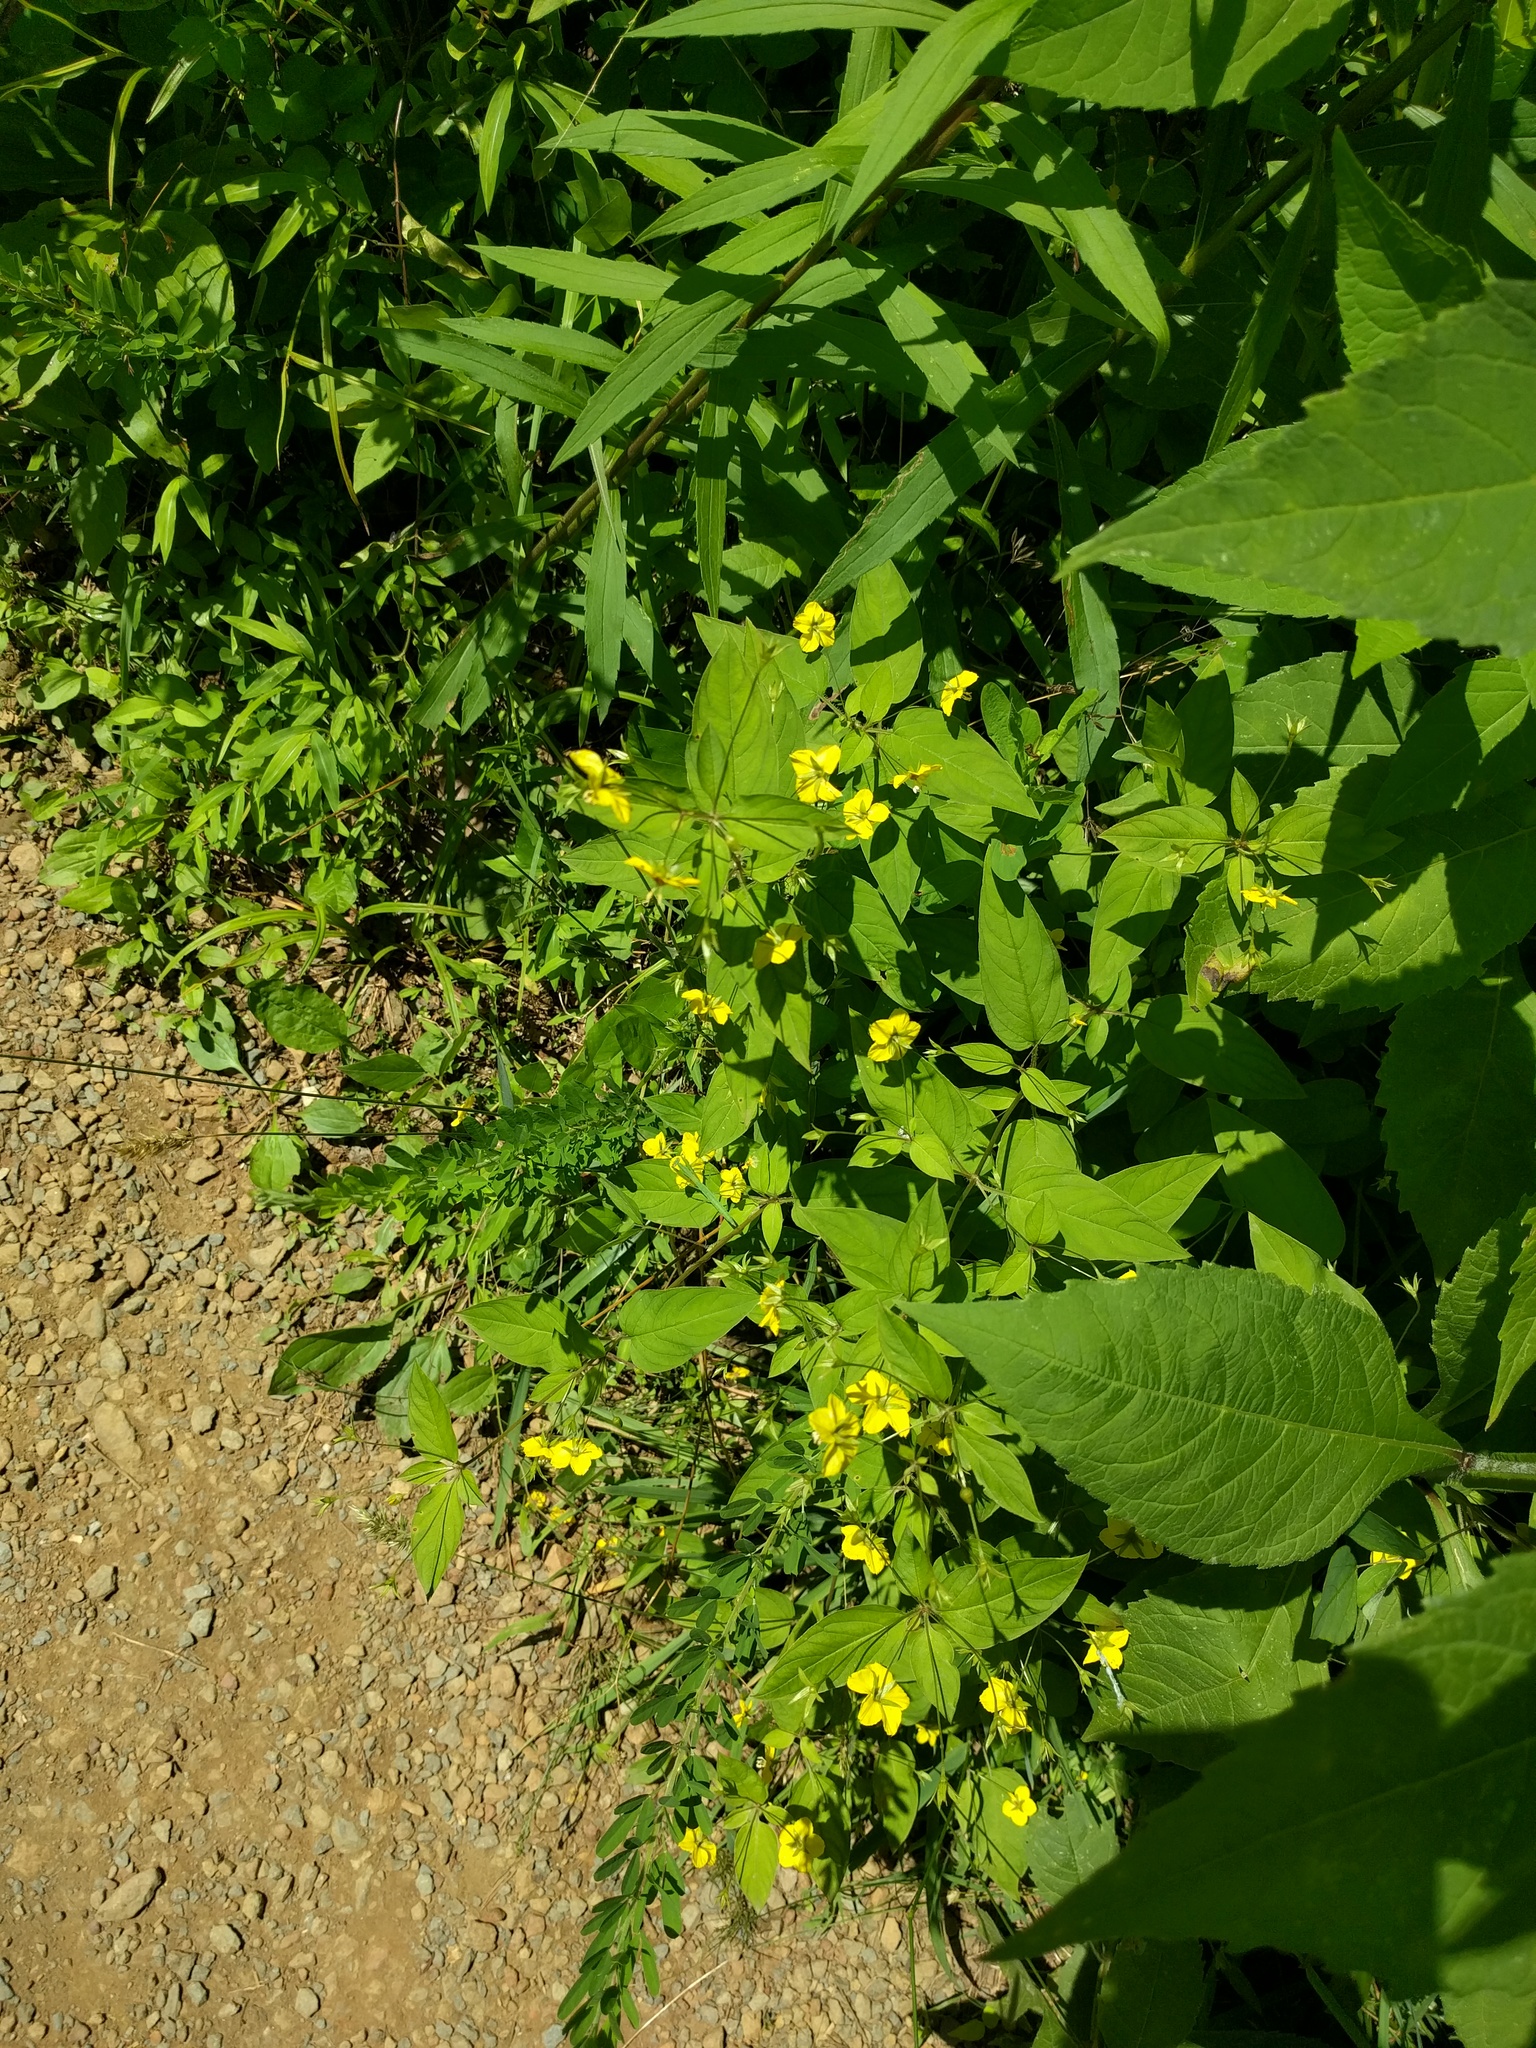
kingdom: Plantae
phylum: Tracheophyta
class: Magnoliopsida
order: Ericales
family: Primulaceae
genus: Lysimachia
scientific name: Lysimachia ciliata
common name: Fringed loosestrife
